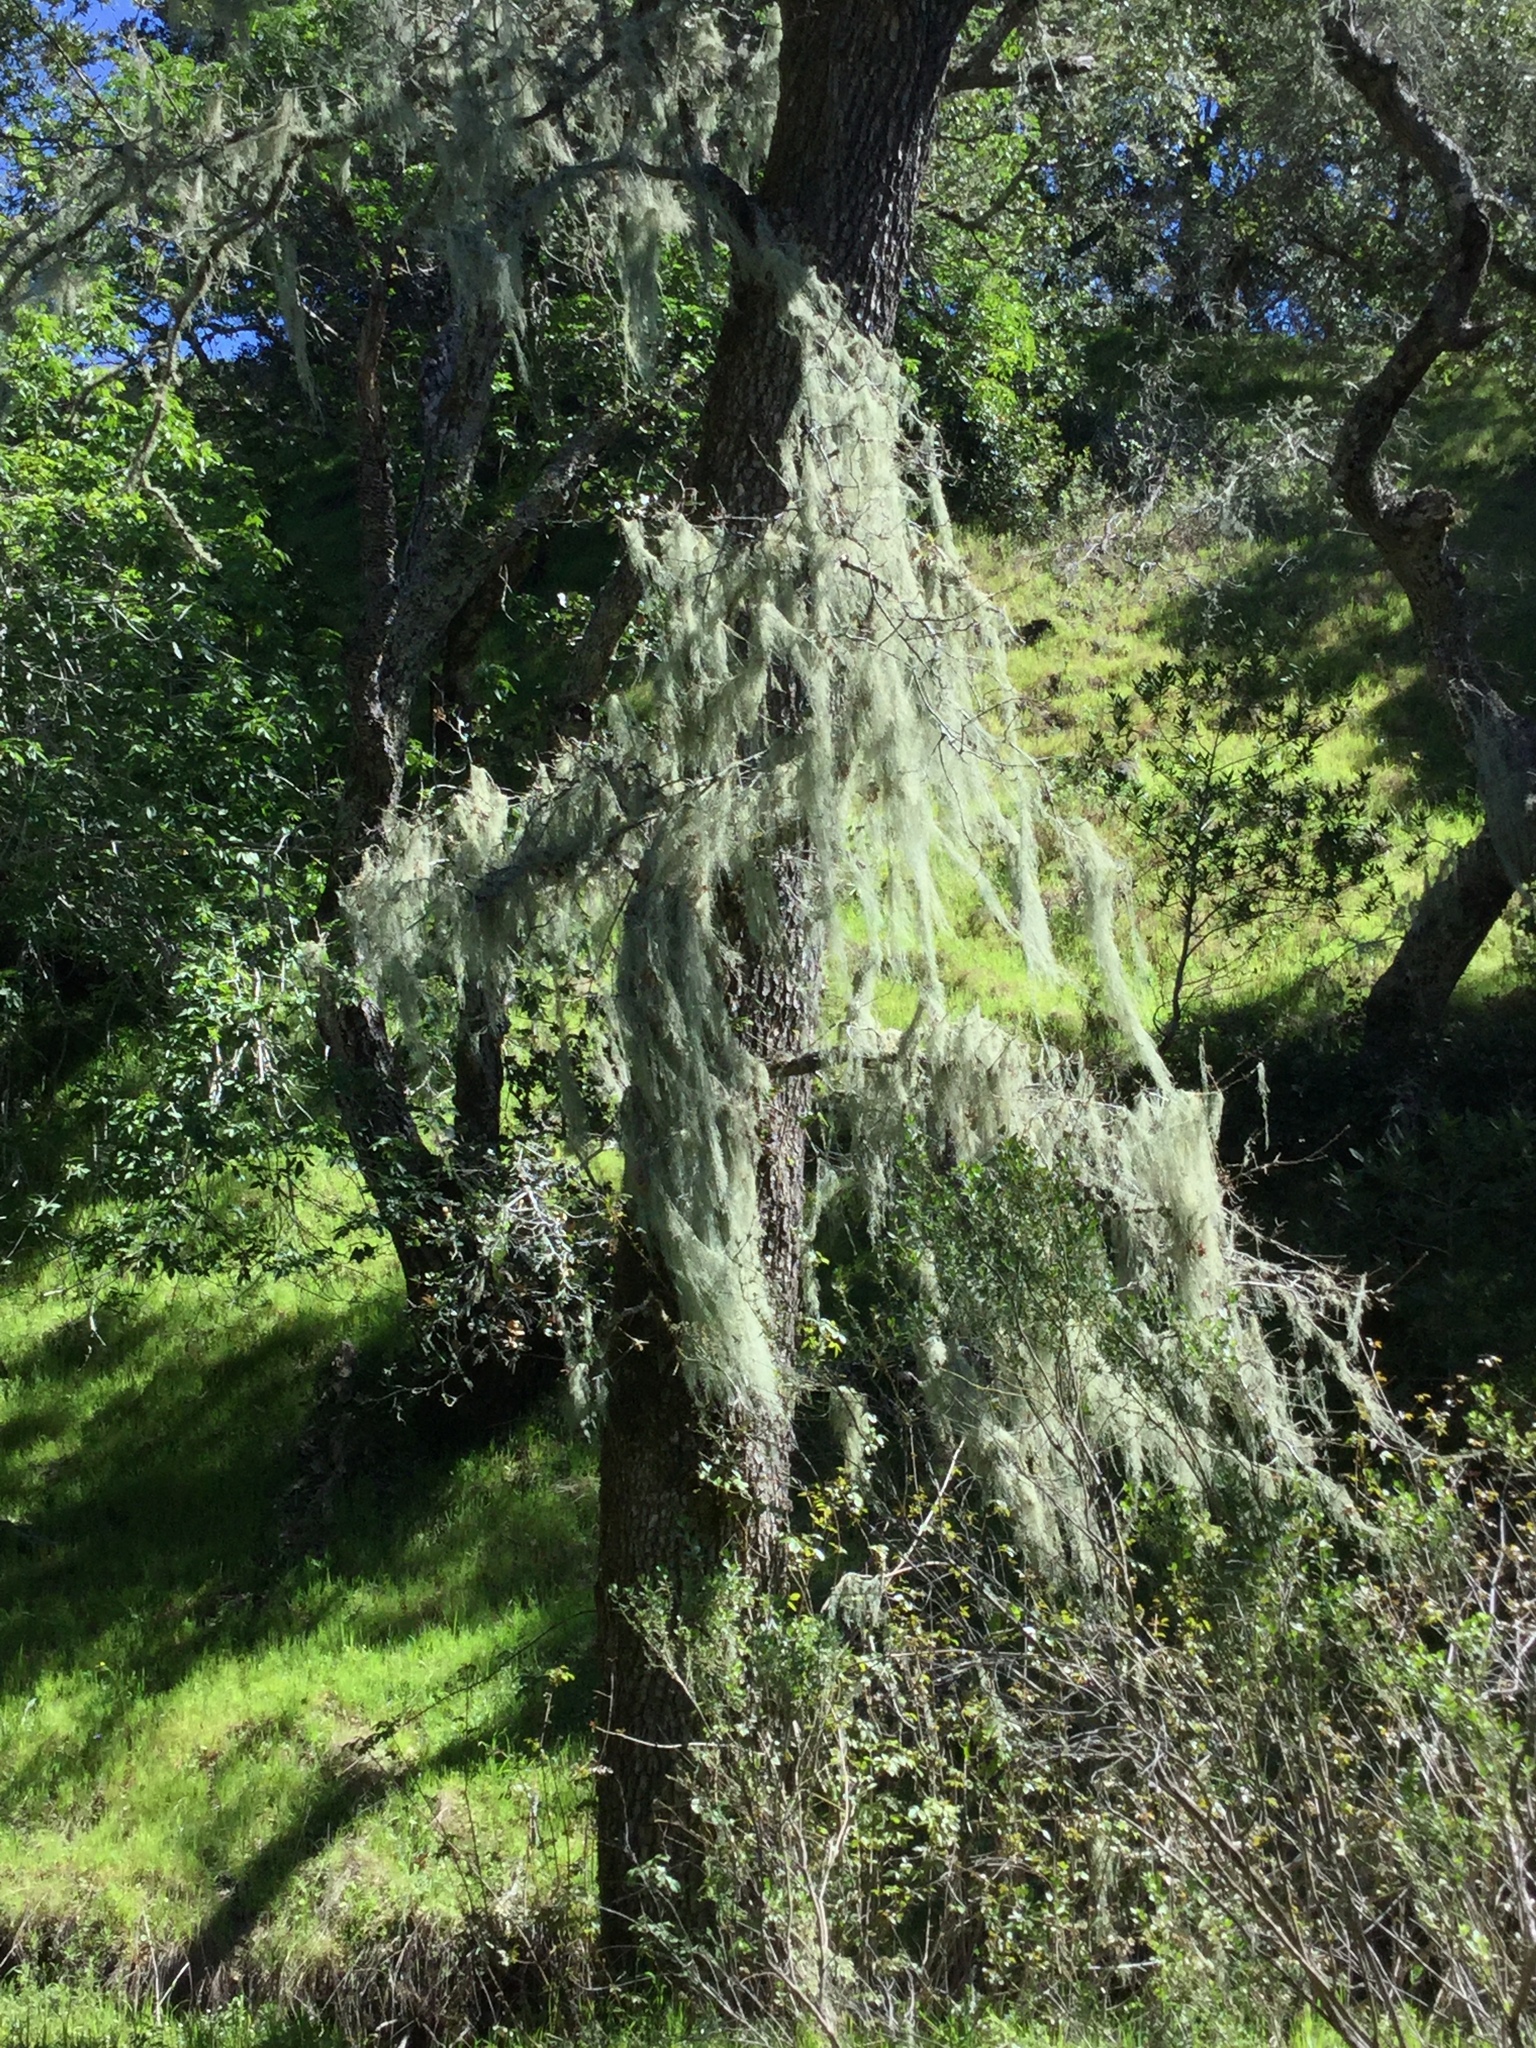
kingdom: Fungi
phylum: Ascomycota
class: Lecanoromycetes
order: Lecanorales
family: Ramalinaceae
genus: Ramalina
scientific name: Ramalina menziesii
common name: Lace lichen
